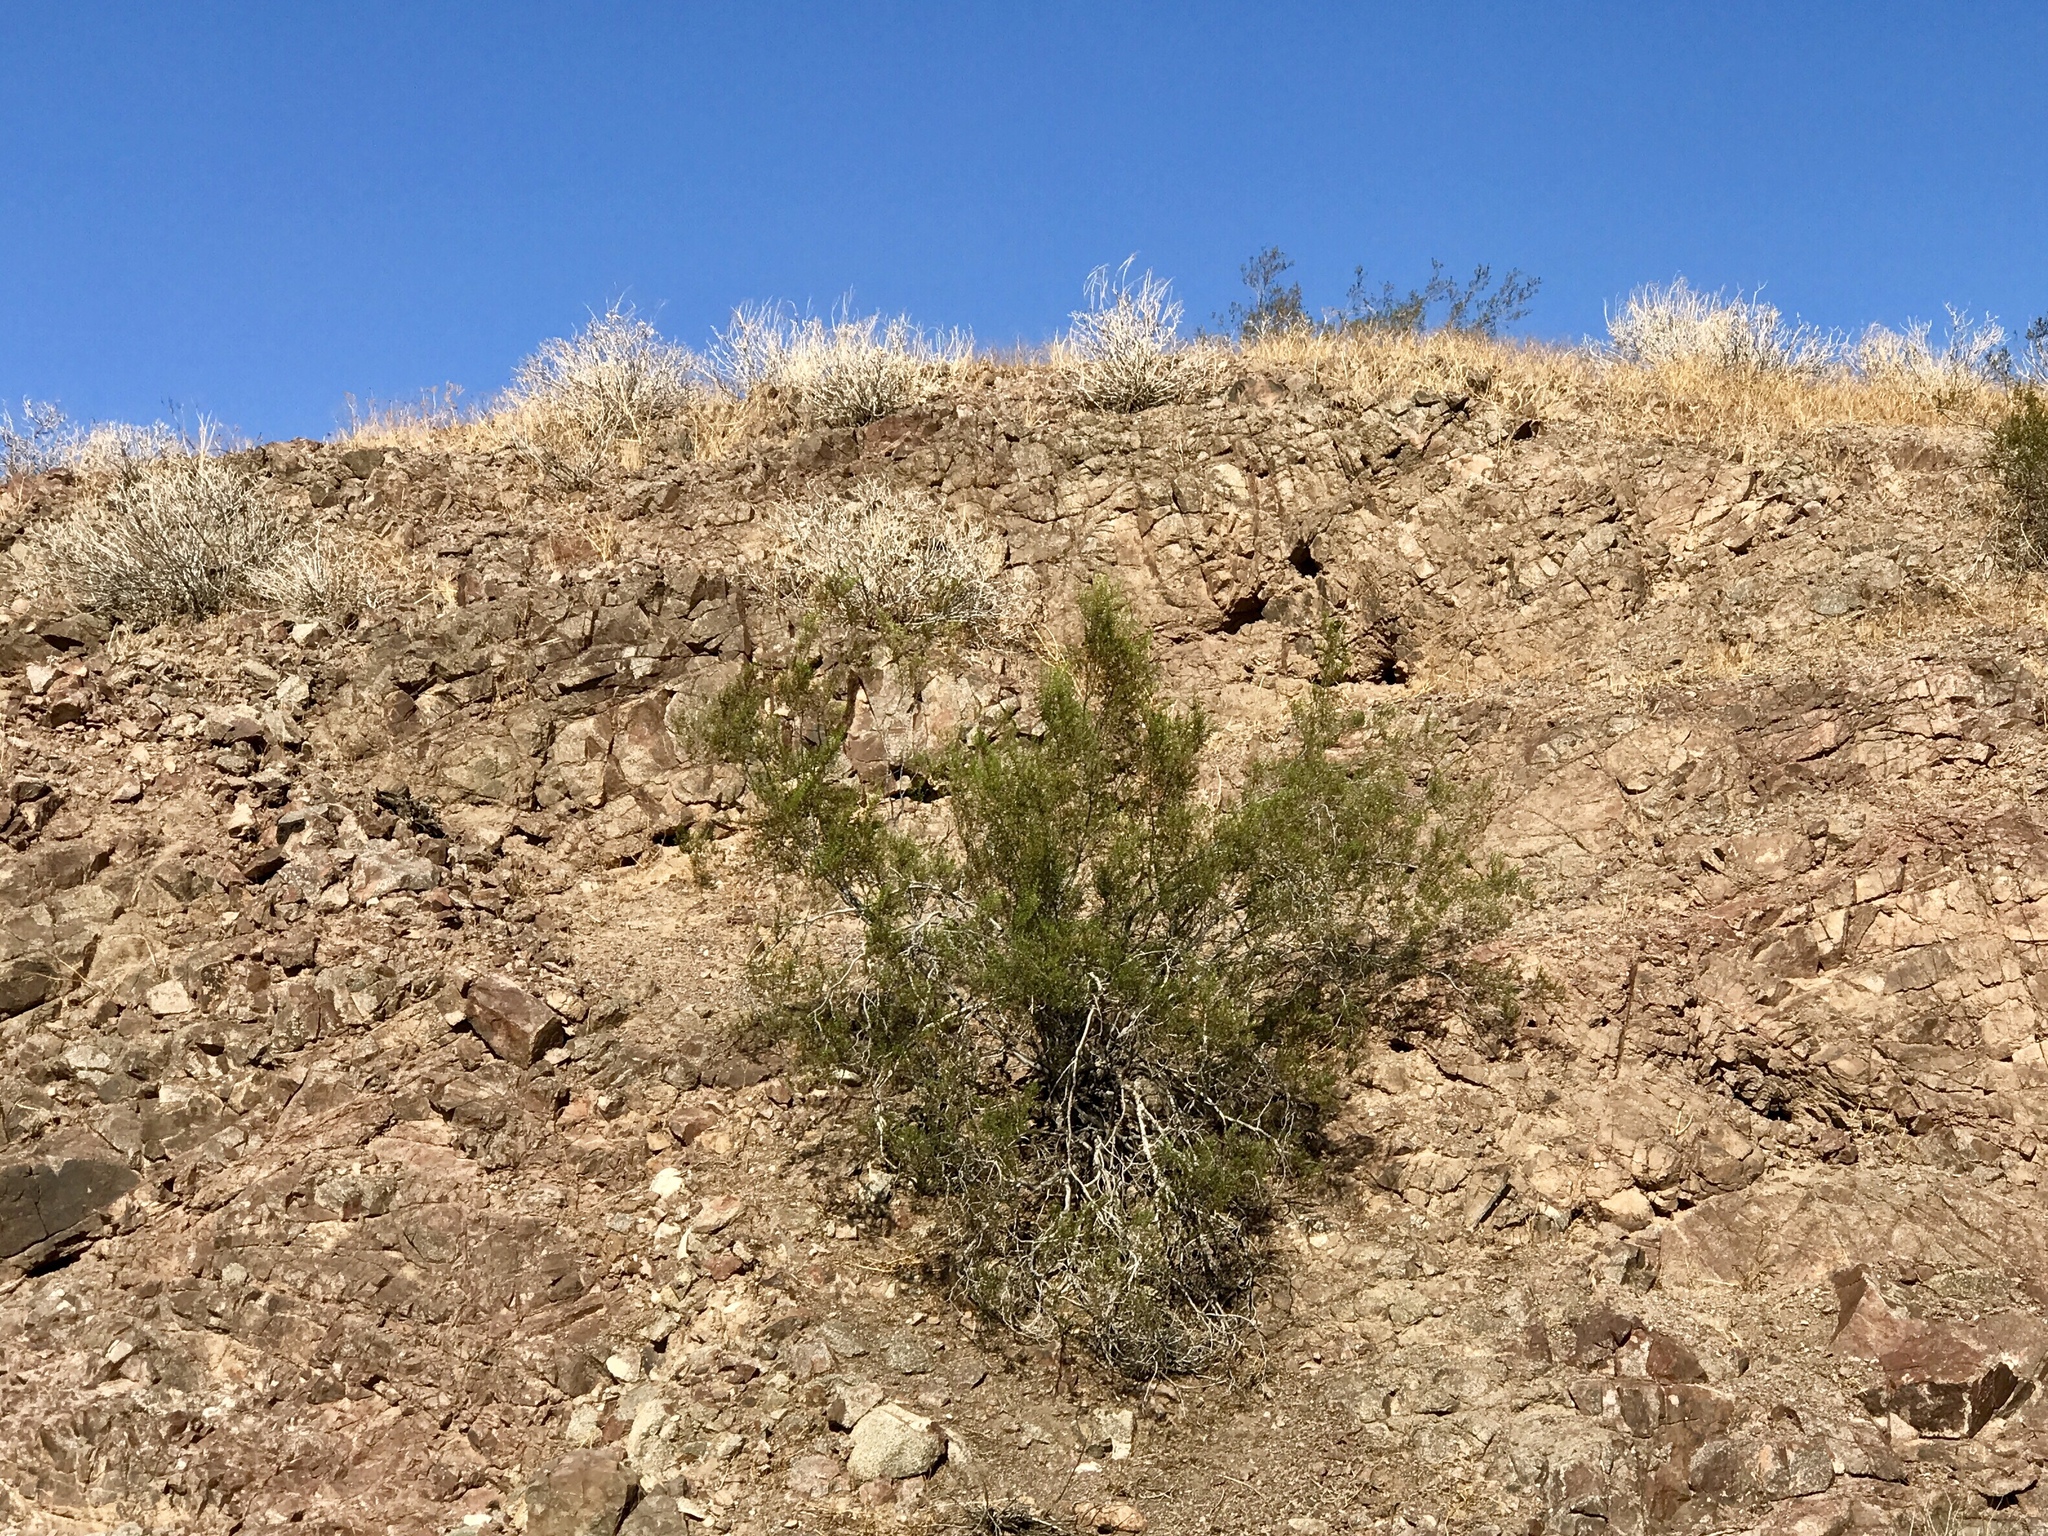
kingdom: Plantae
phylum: Tracheophyta
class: Magnoliopsida
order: Zygophyllales
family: Zygophyllaceae
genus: Larrea
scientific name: Larrea tridentata
